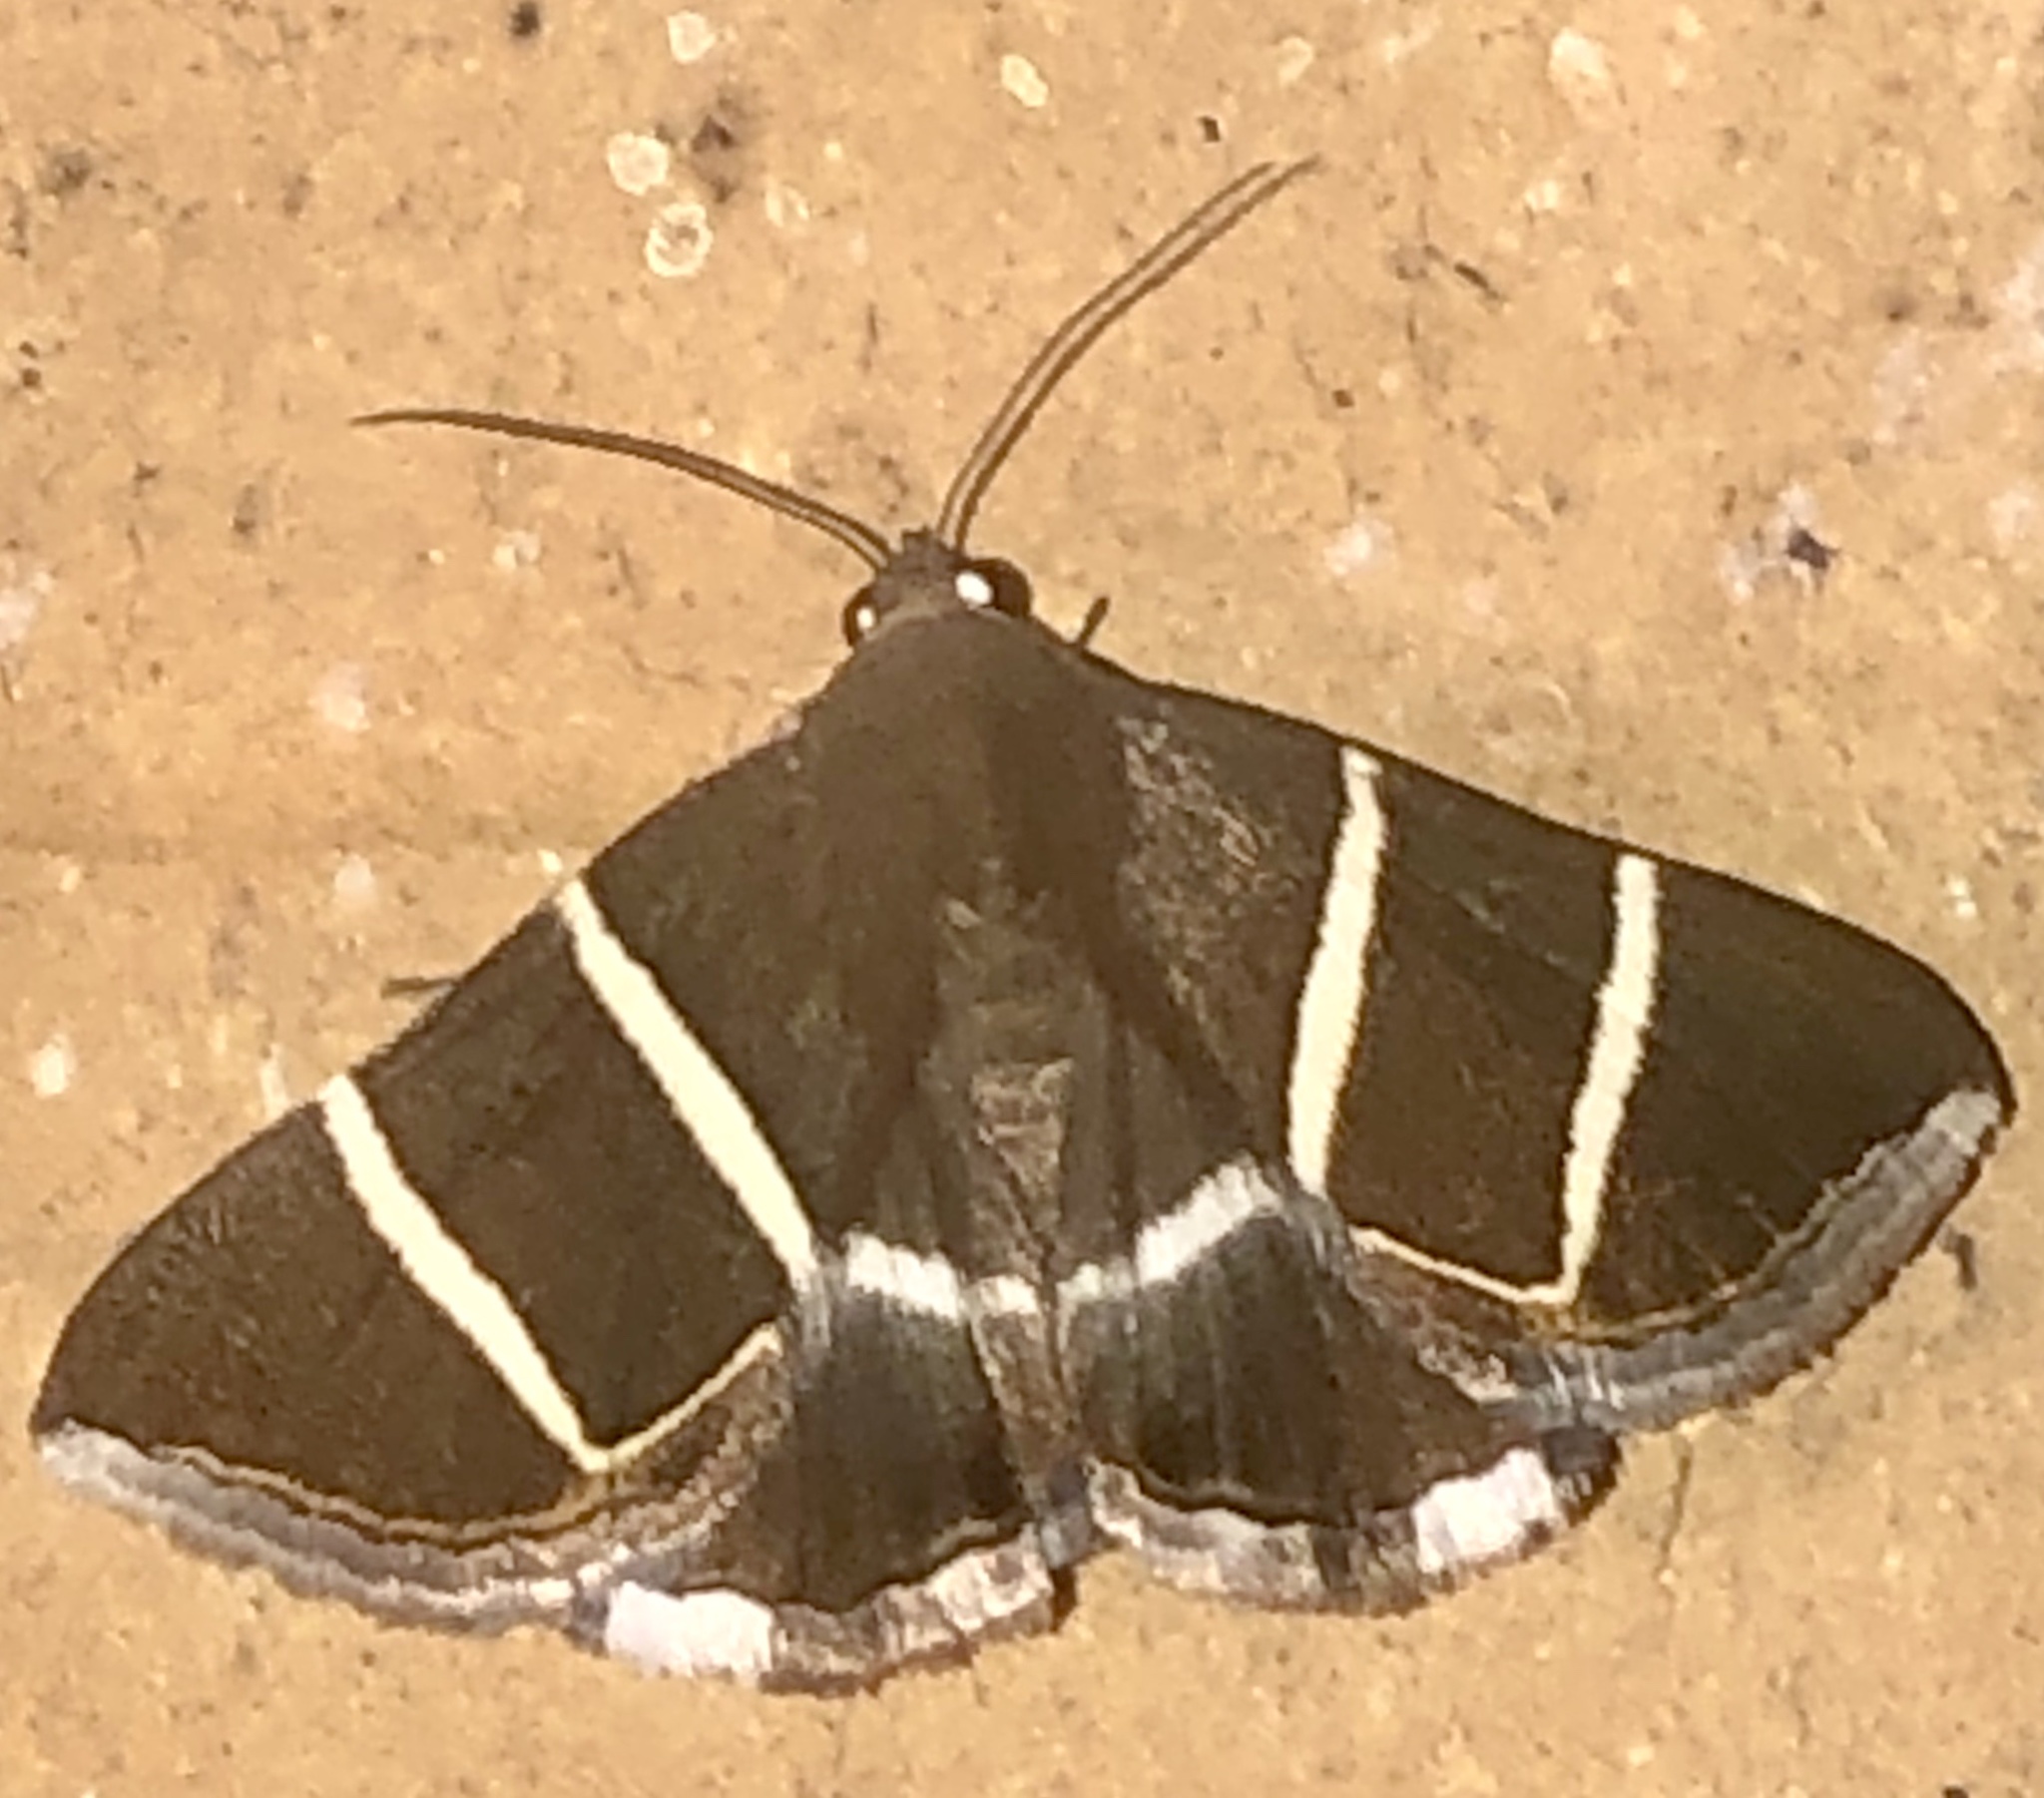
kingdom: Animalia
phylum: Arthropoda
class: Insecta
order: Lepidoptera
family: Erebidae
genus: Grammodes
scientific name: Grammodes justa
